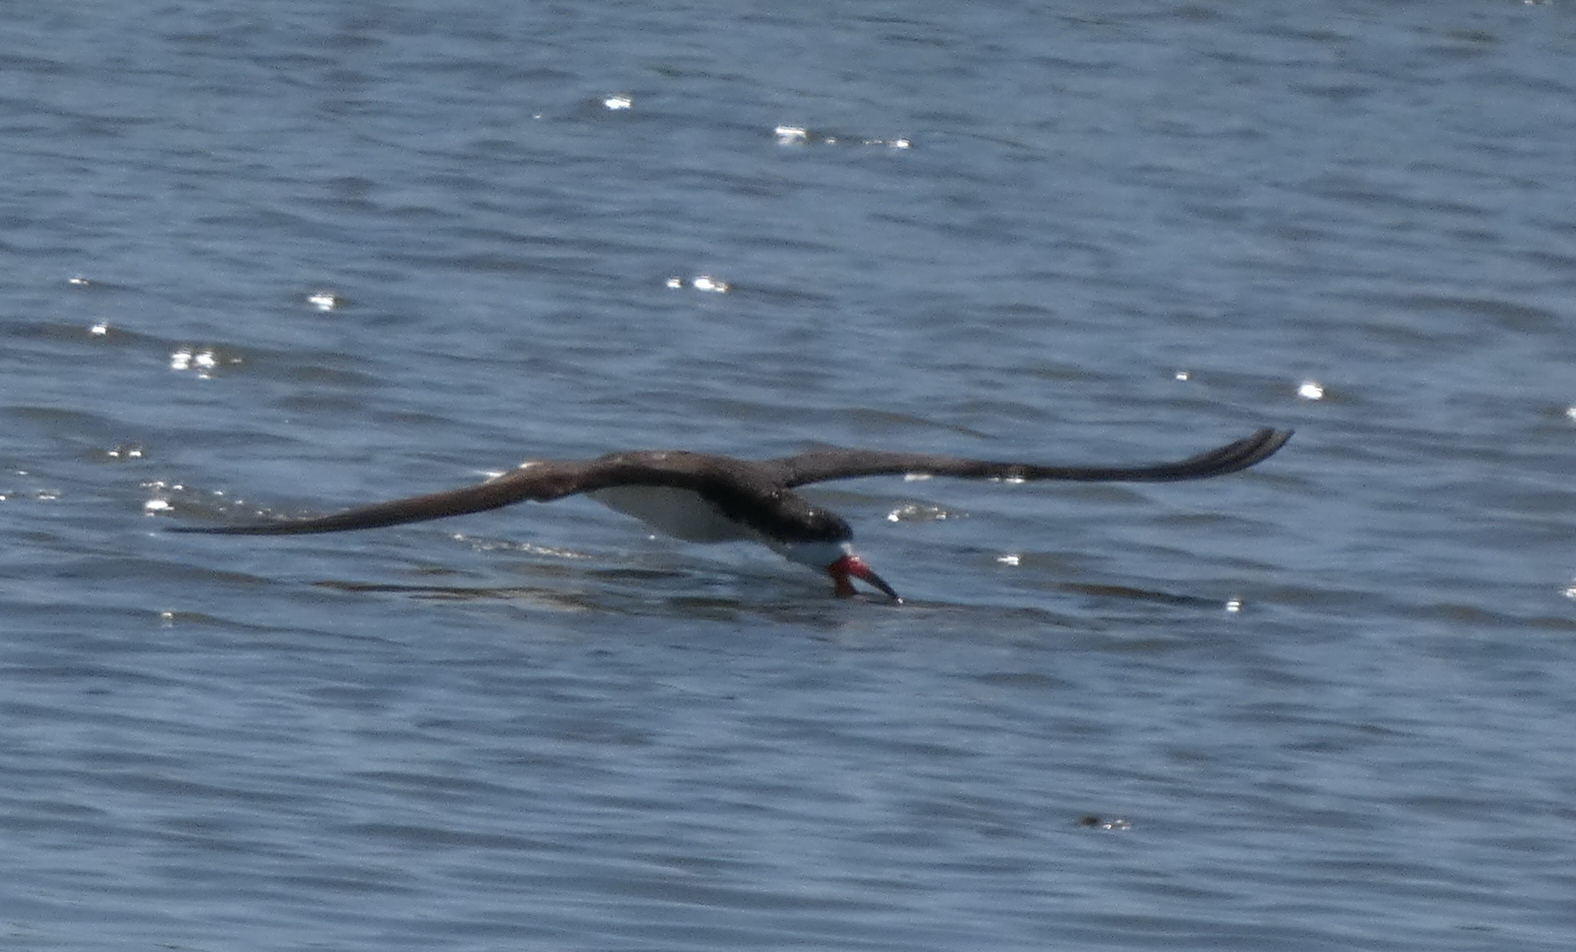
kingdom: Animalia
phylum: Chordata
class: Aves
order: Charadriiformes
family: Laridae
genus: Rynchops
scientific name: Rynchops niger
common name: Black skimmer
